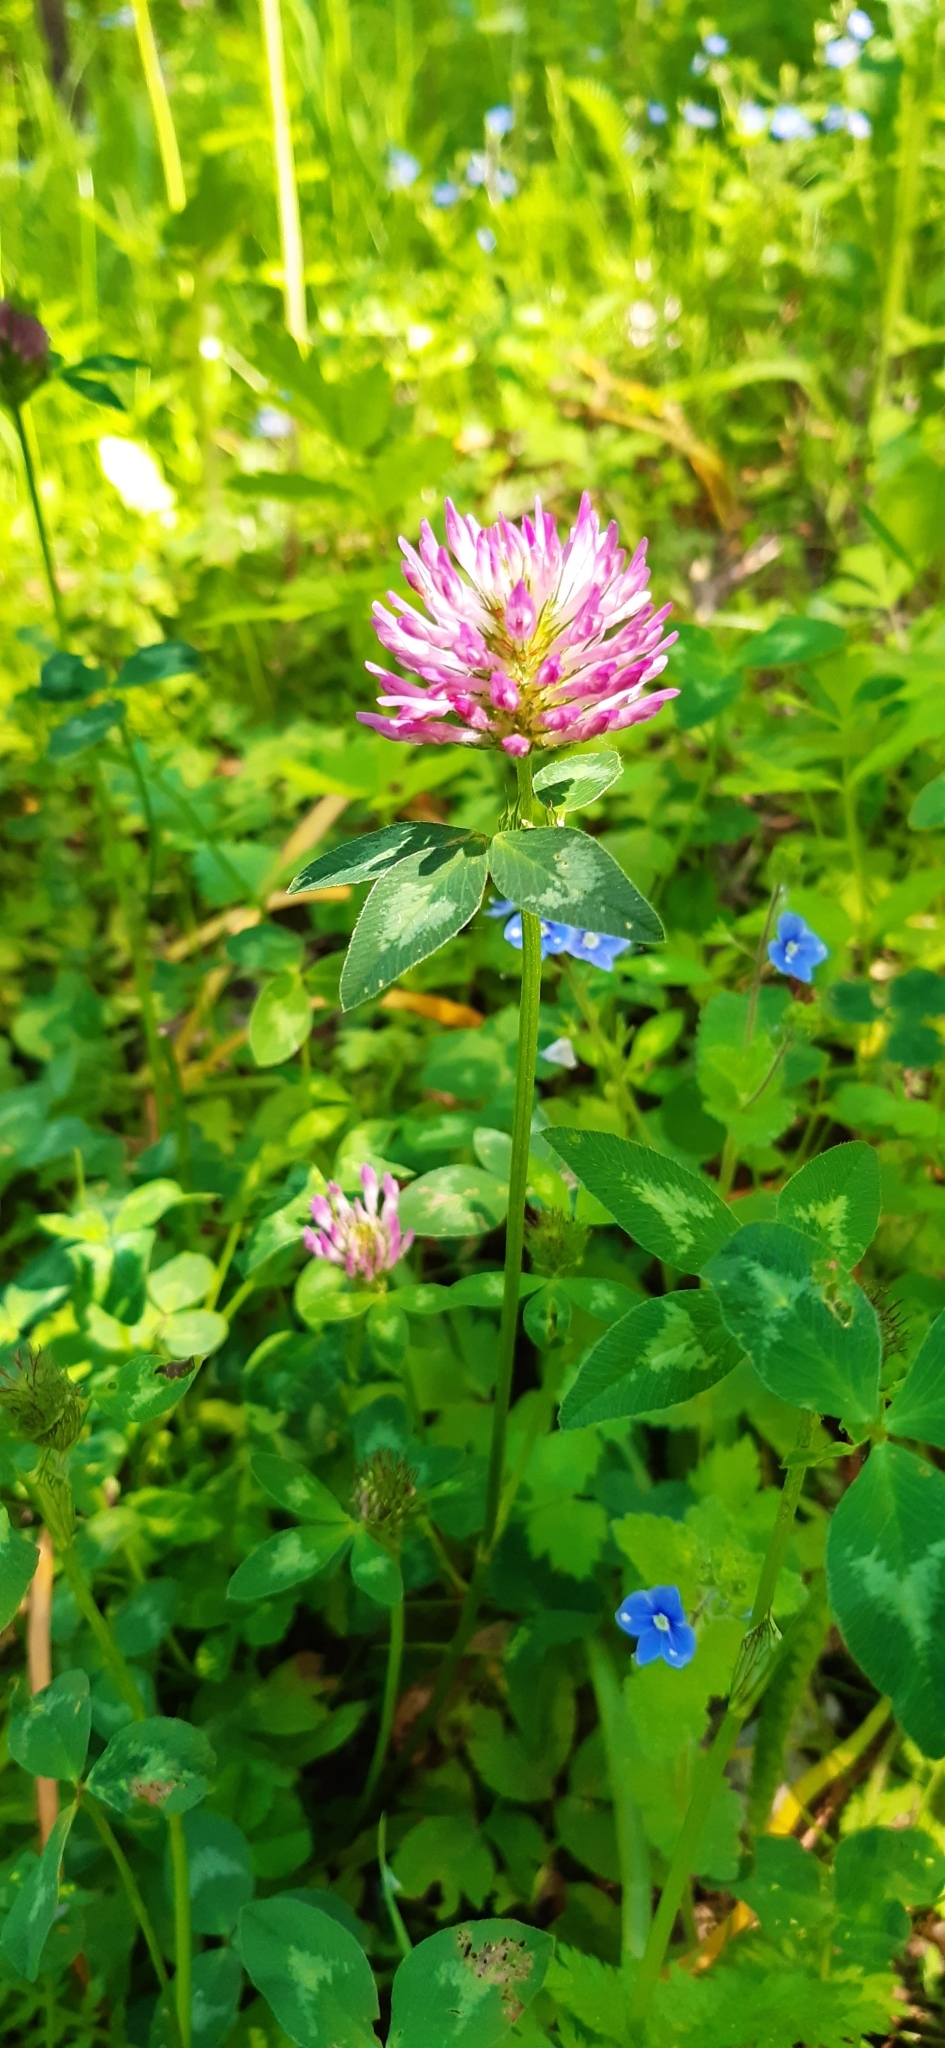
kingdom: Plantae
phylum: Tracheophyta
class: Magnoliopsida
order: Fabales
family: Fabaceae
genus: Trifolium
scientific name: Trifolium pratense
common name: Red clover
